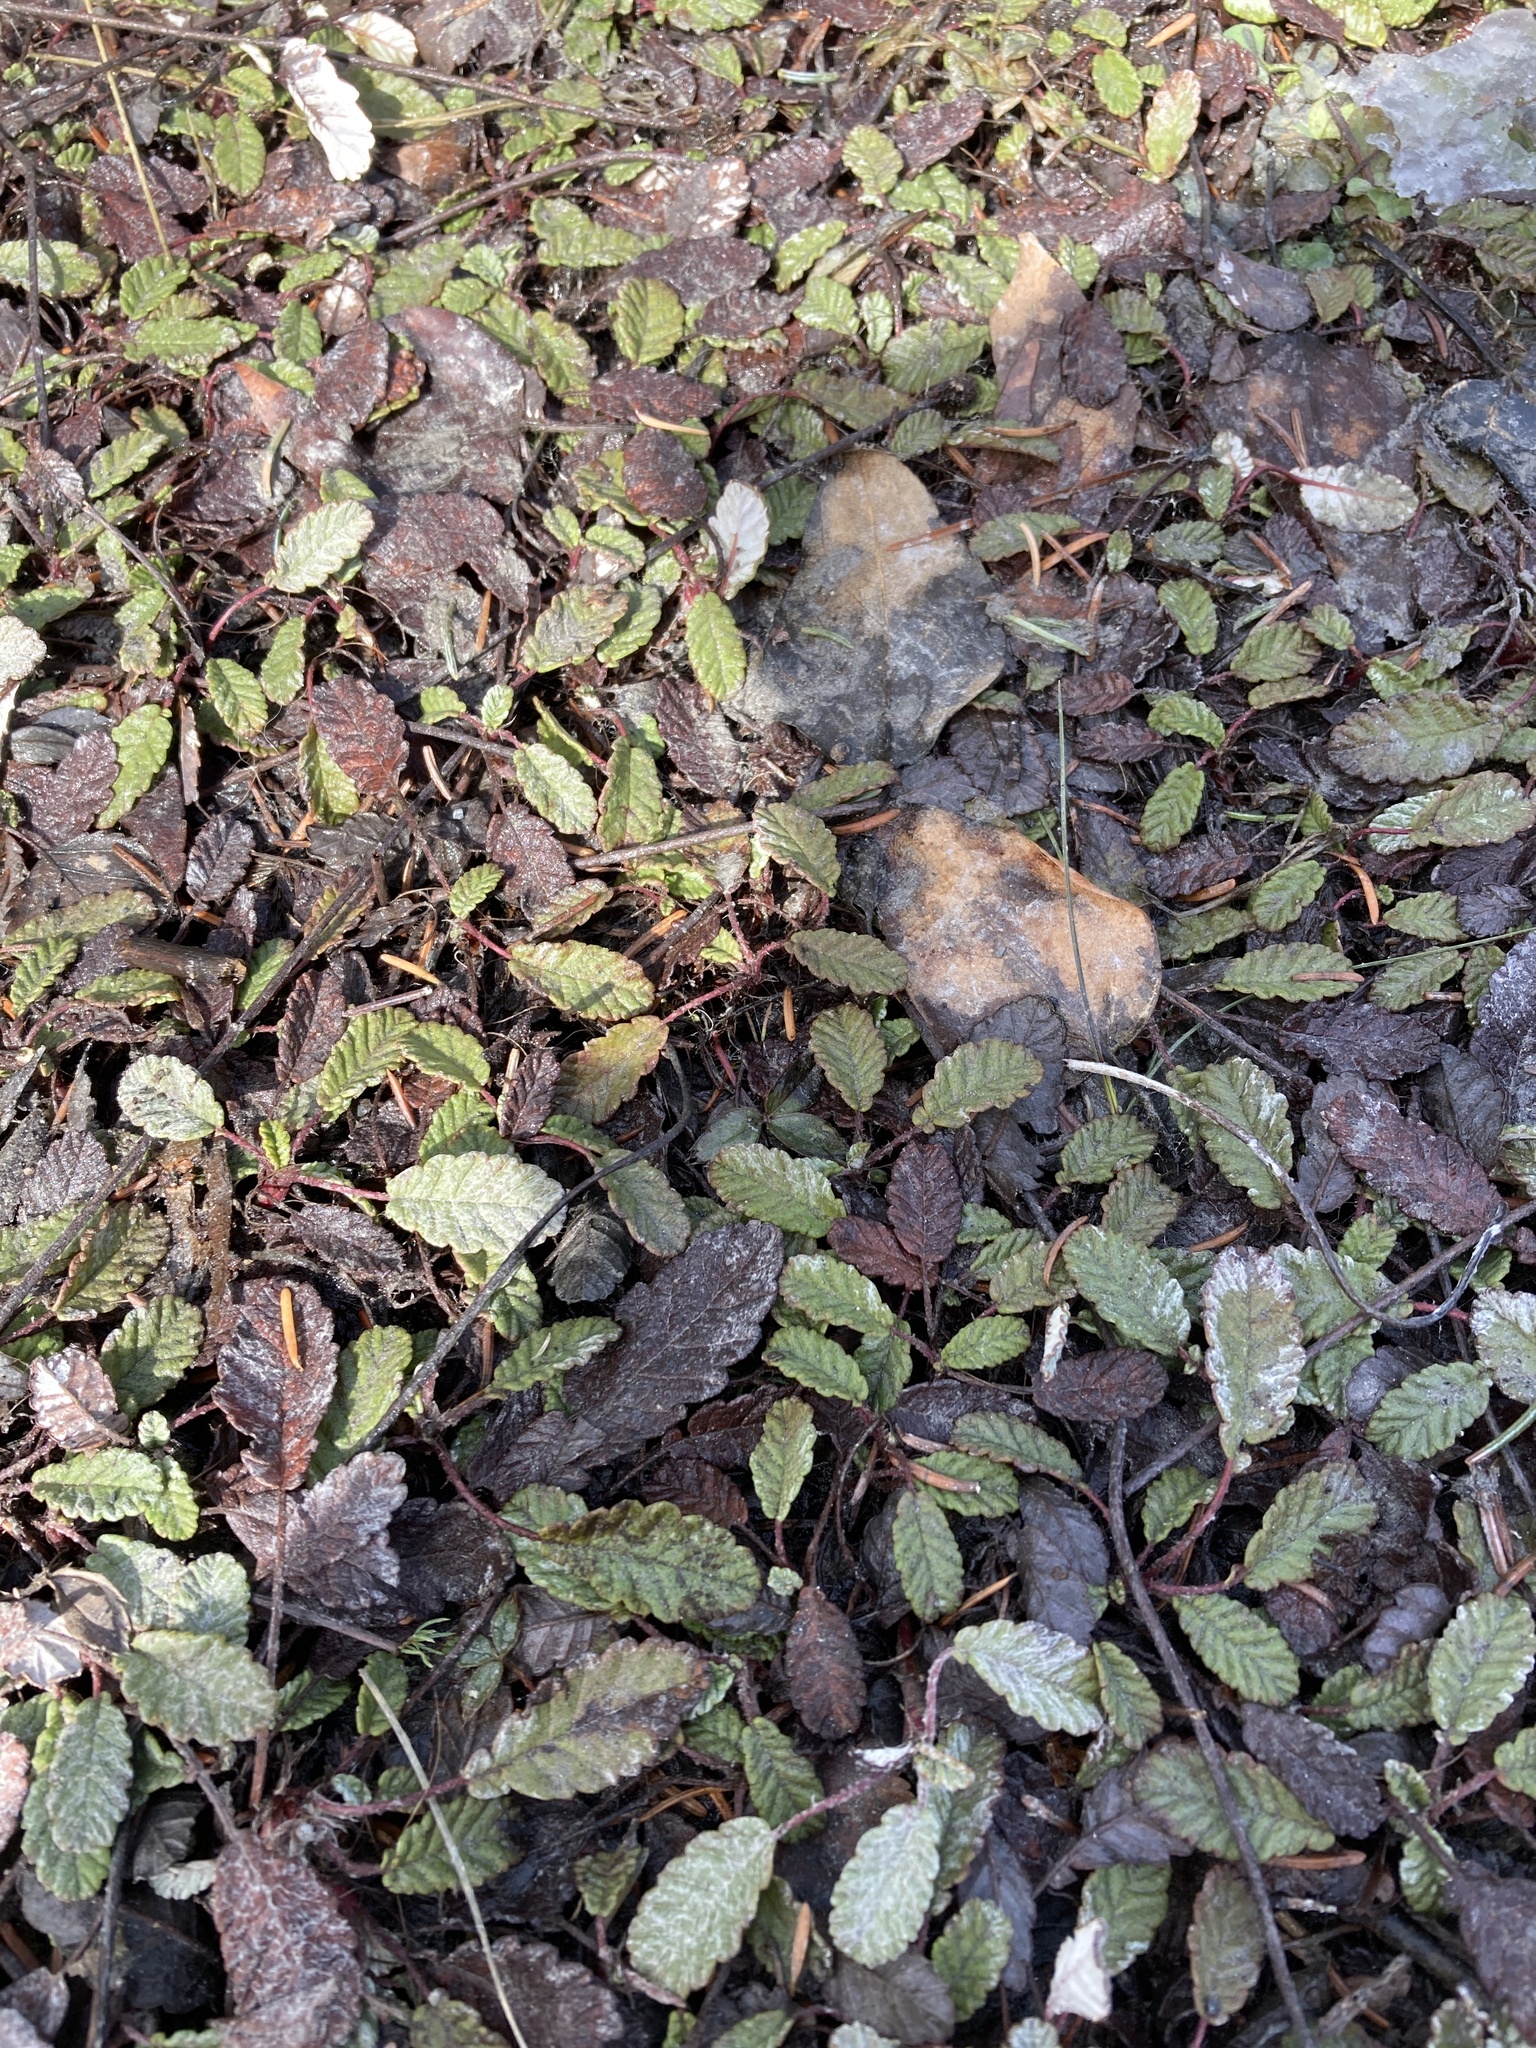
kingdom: Plantae
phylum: Tracheophyta
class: Magnoliopsida
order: Rosales
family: Rosaceae
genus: Dryas
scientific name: Dryas drummondii
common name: Drummond's dryad
